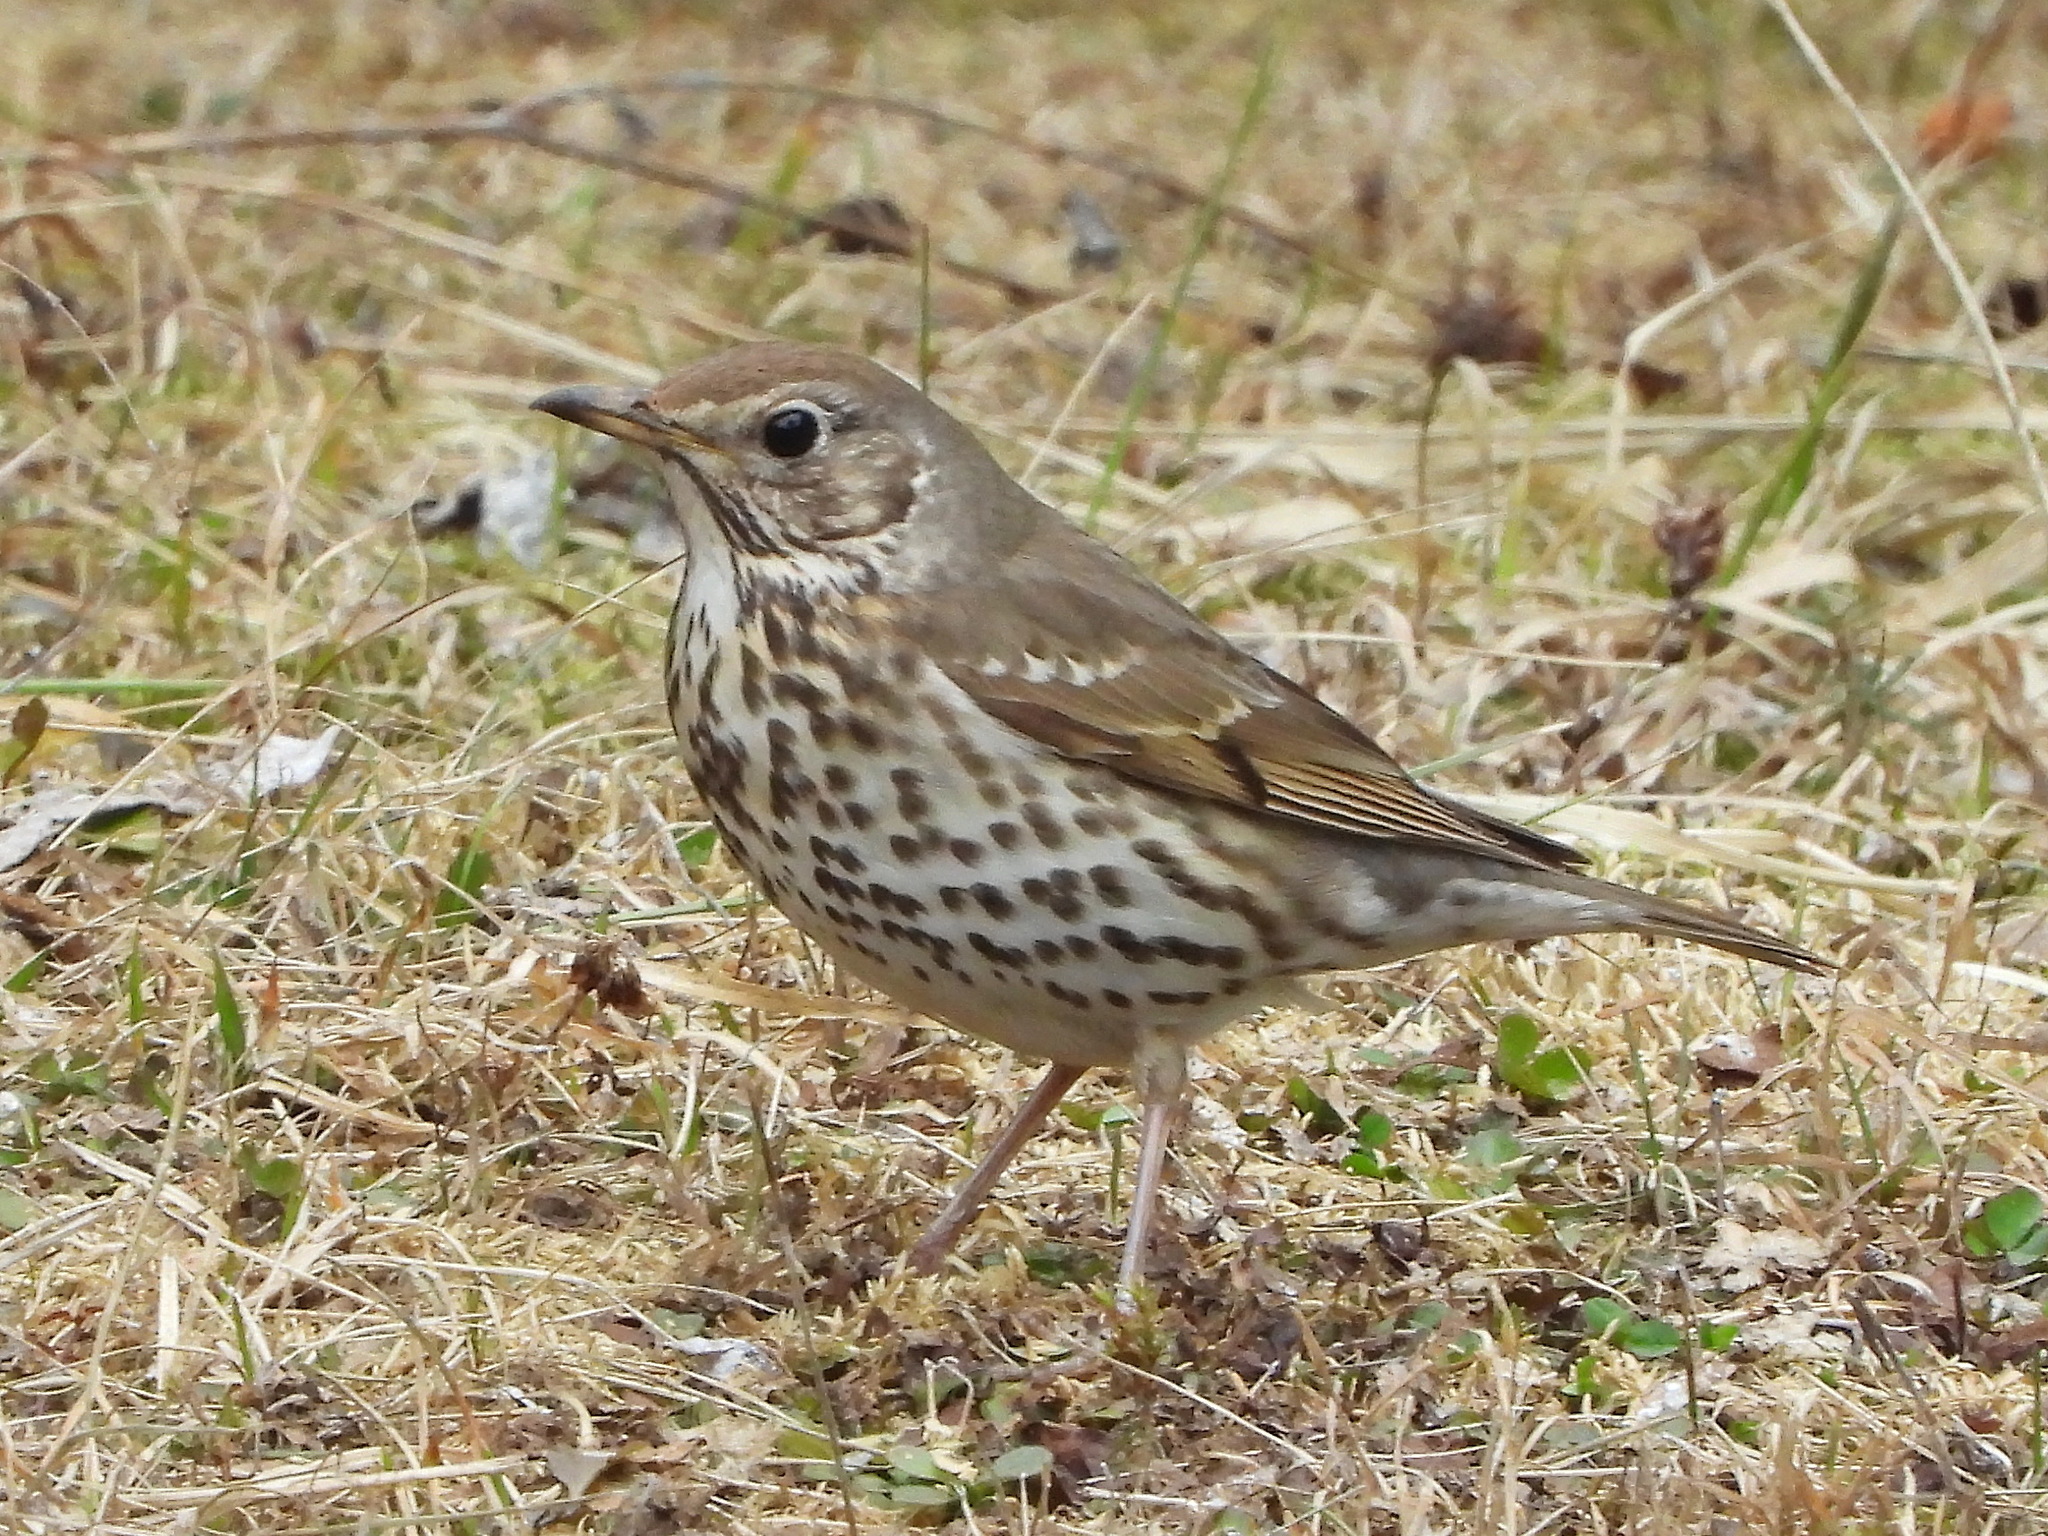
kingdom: Animalia
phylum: Chordata
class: Aves
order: Passeriformes
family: Turdidae
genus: Turdus
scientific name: Turdus philomelos
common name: Song thrush
